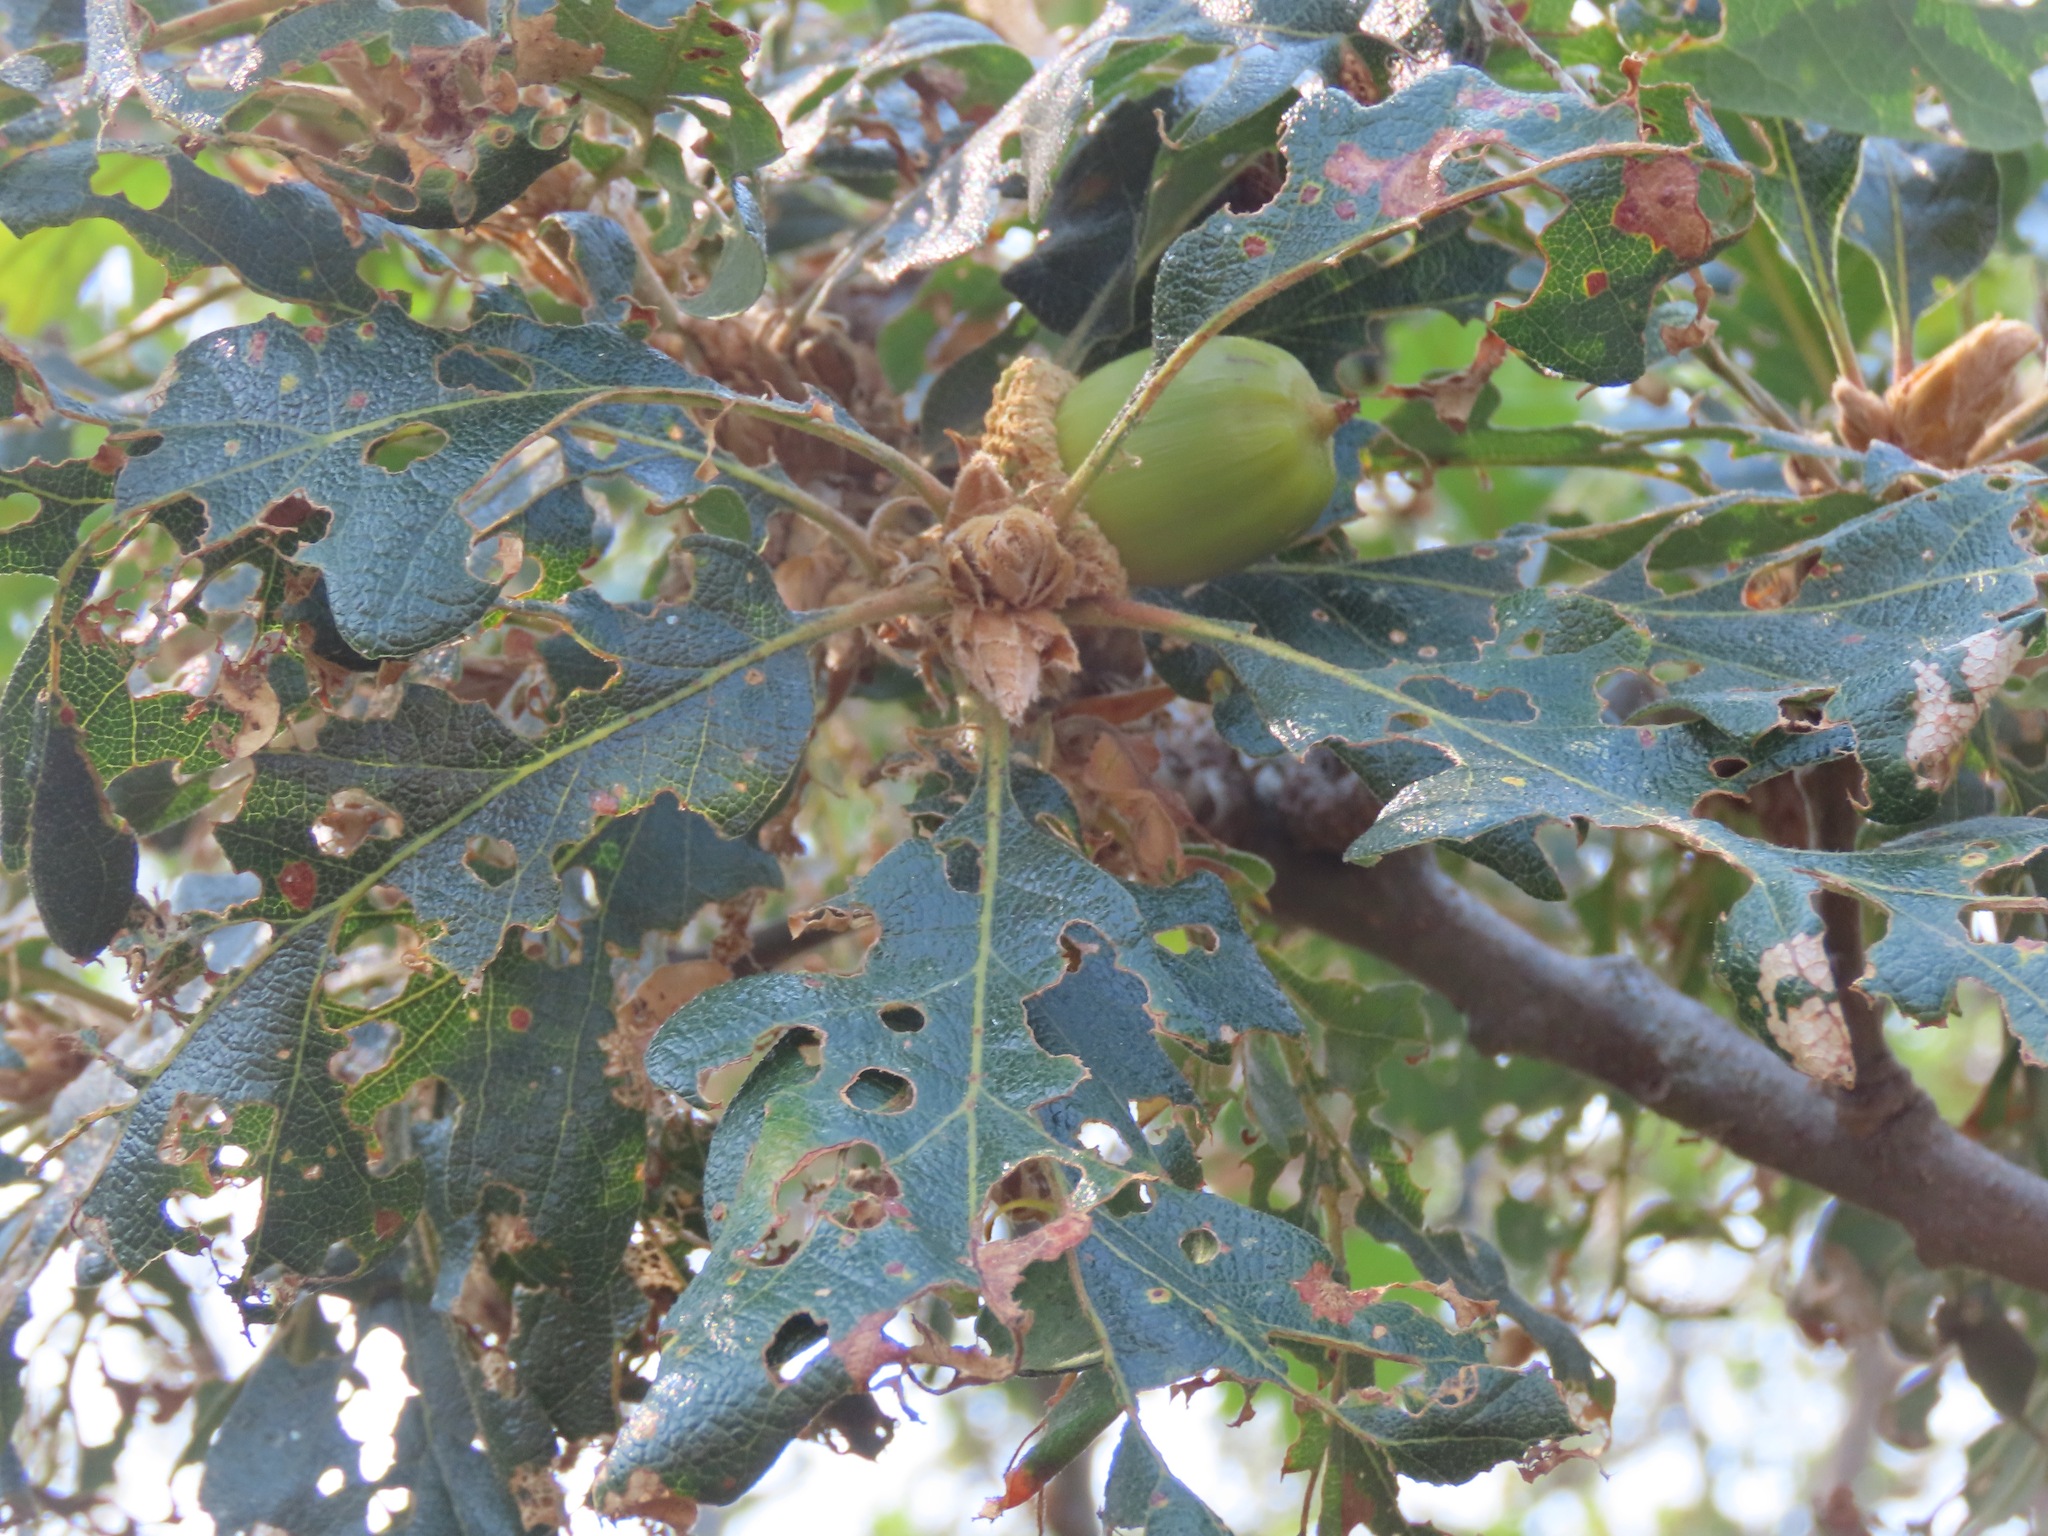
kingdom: Plantae
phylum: Tracheophyta
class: Magnoliopsida
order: Fagales
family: Fagaceae
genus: Quercus
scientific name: Quercus garryana
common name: Garry oak
